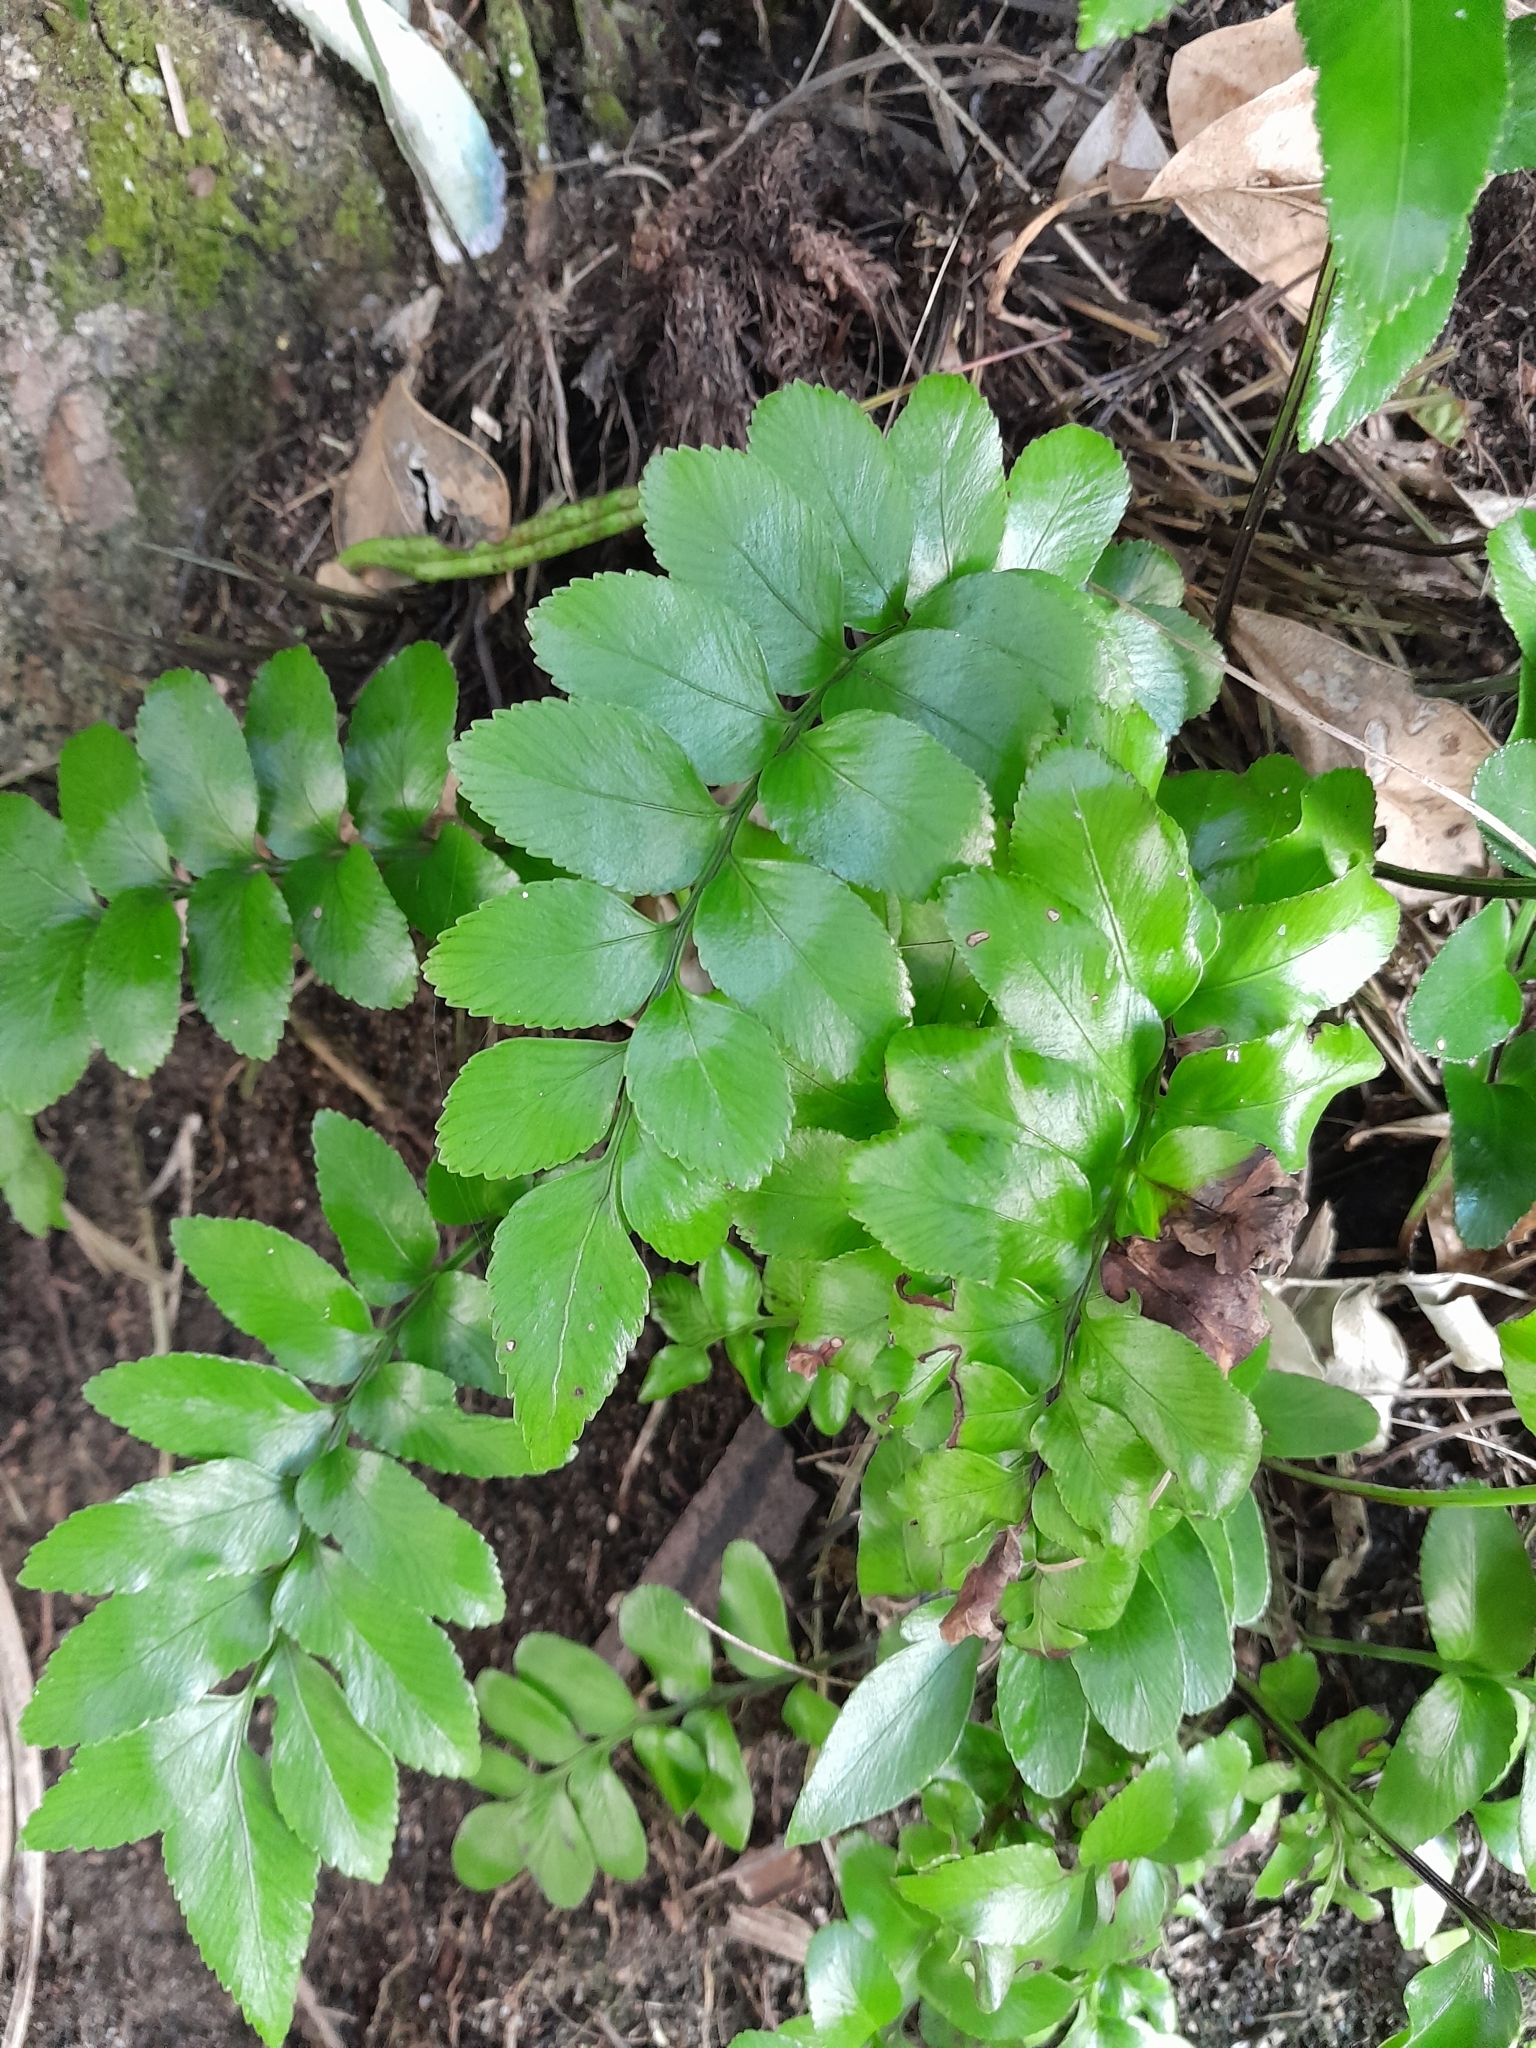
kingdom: Plantae
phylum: Tracheophyta
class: Polypodiopsida
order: Polypodiales
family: Aspleniaceae
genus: Asplenium
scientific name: Asplenium obtusatum
